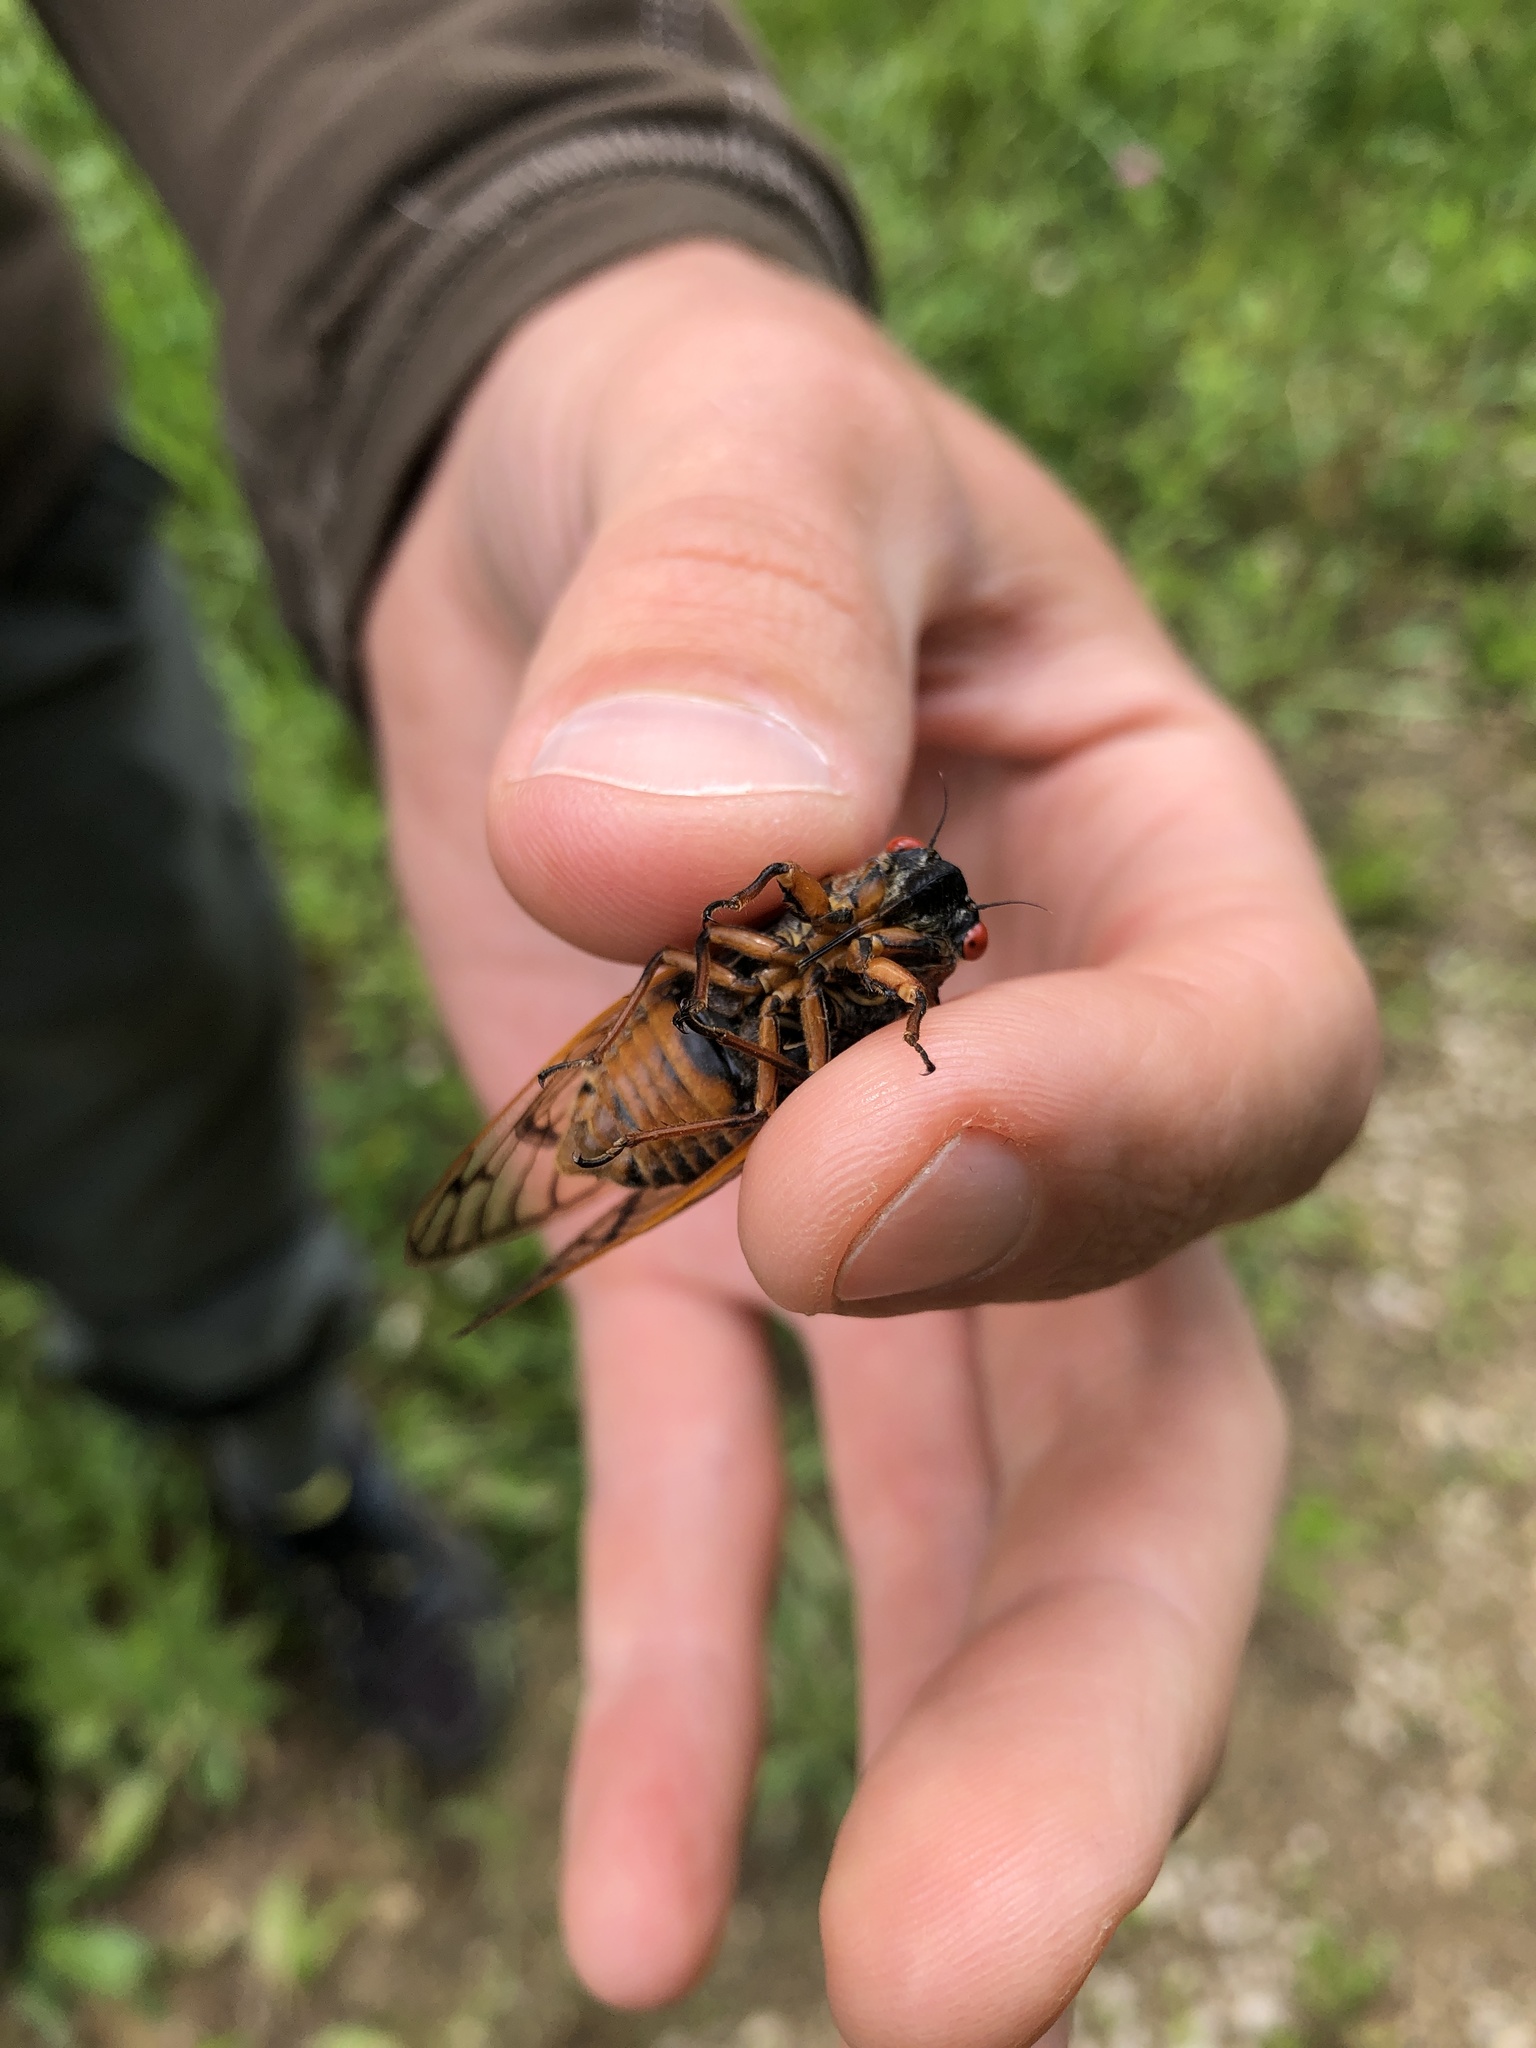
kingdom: Animalia
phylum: Arthropoda
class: Insecta
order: Hemiptera
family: Cicadidae
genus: Magicicada
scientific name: Magicicada septendecim
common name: Periodical cicada
